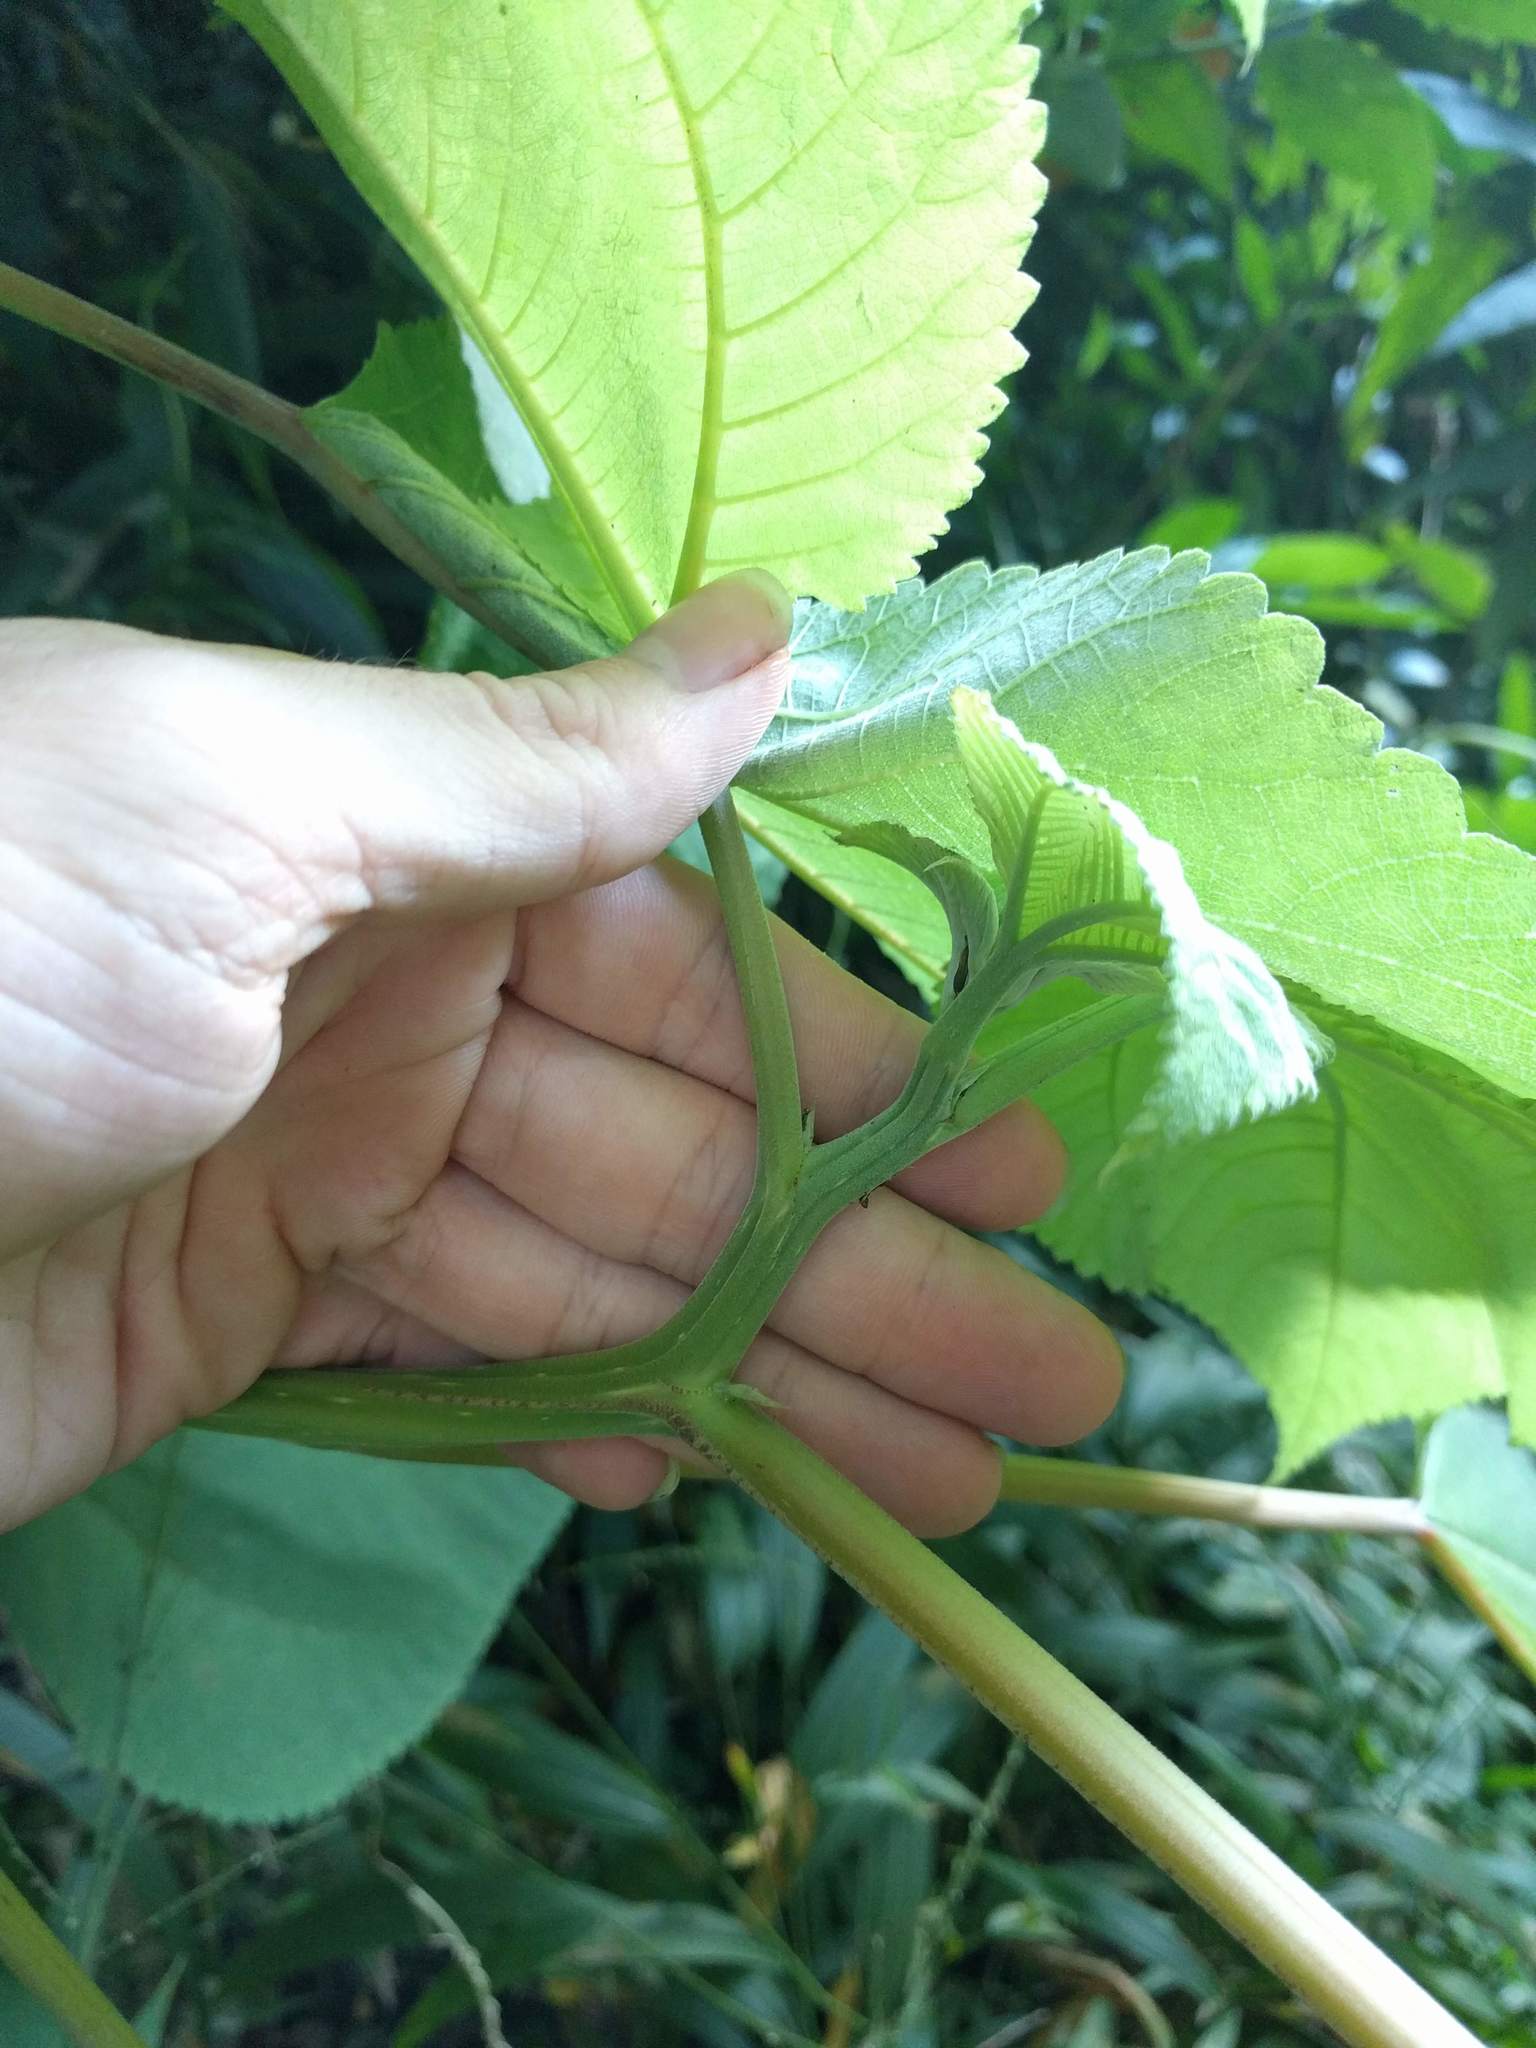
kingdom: Plantae
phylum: Tracheophyta
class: Magnoliopsida
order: Rosales
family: Urticaceae
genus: Pipturus
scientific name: Pipturus albidus
